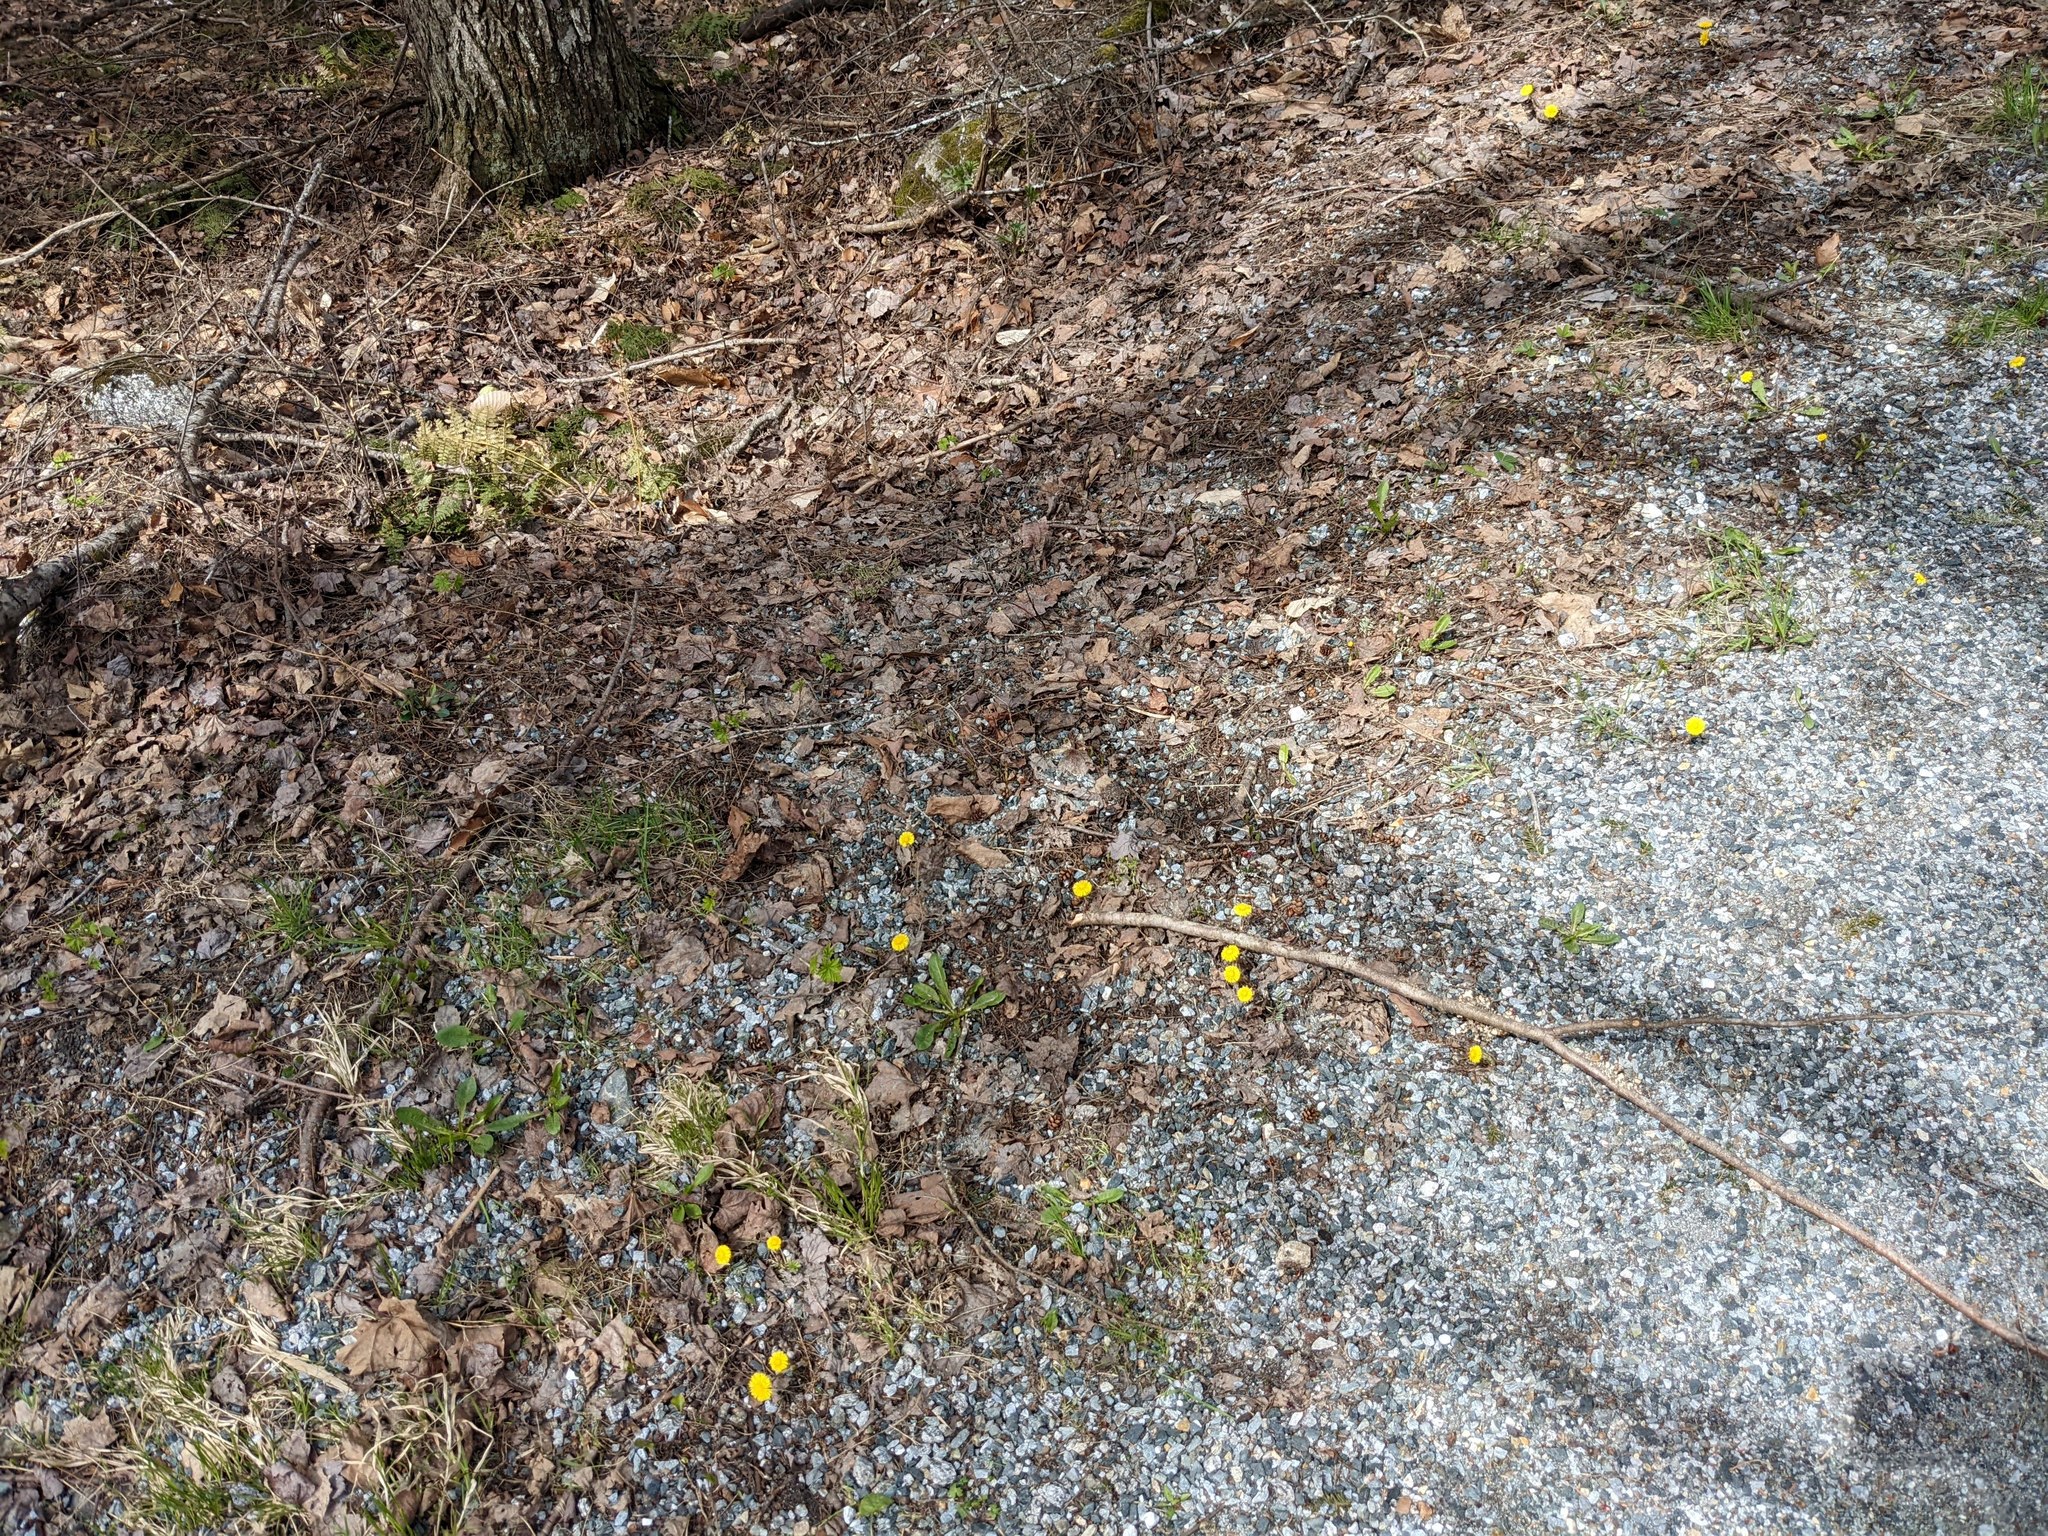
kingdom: Plantae
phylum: Tracheophyta
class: Magnoliopsida
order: Asterales
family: Asteraceae
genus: Tussilago
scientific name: Tussilago farfara
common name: Coltsfoot
